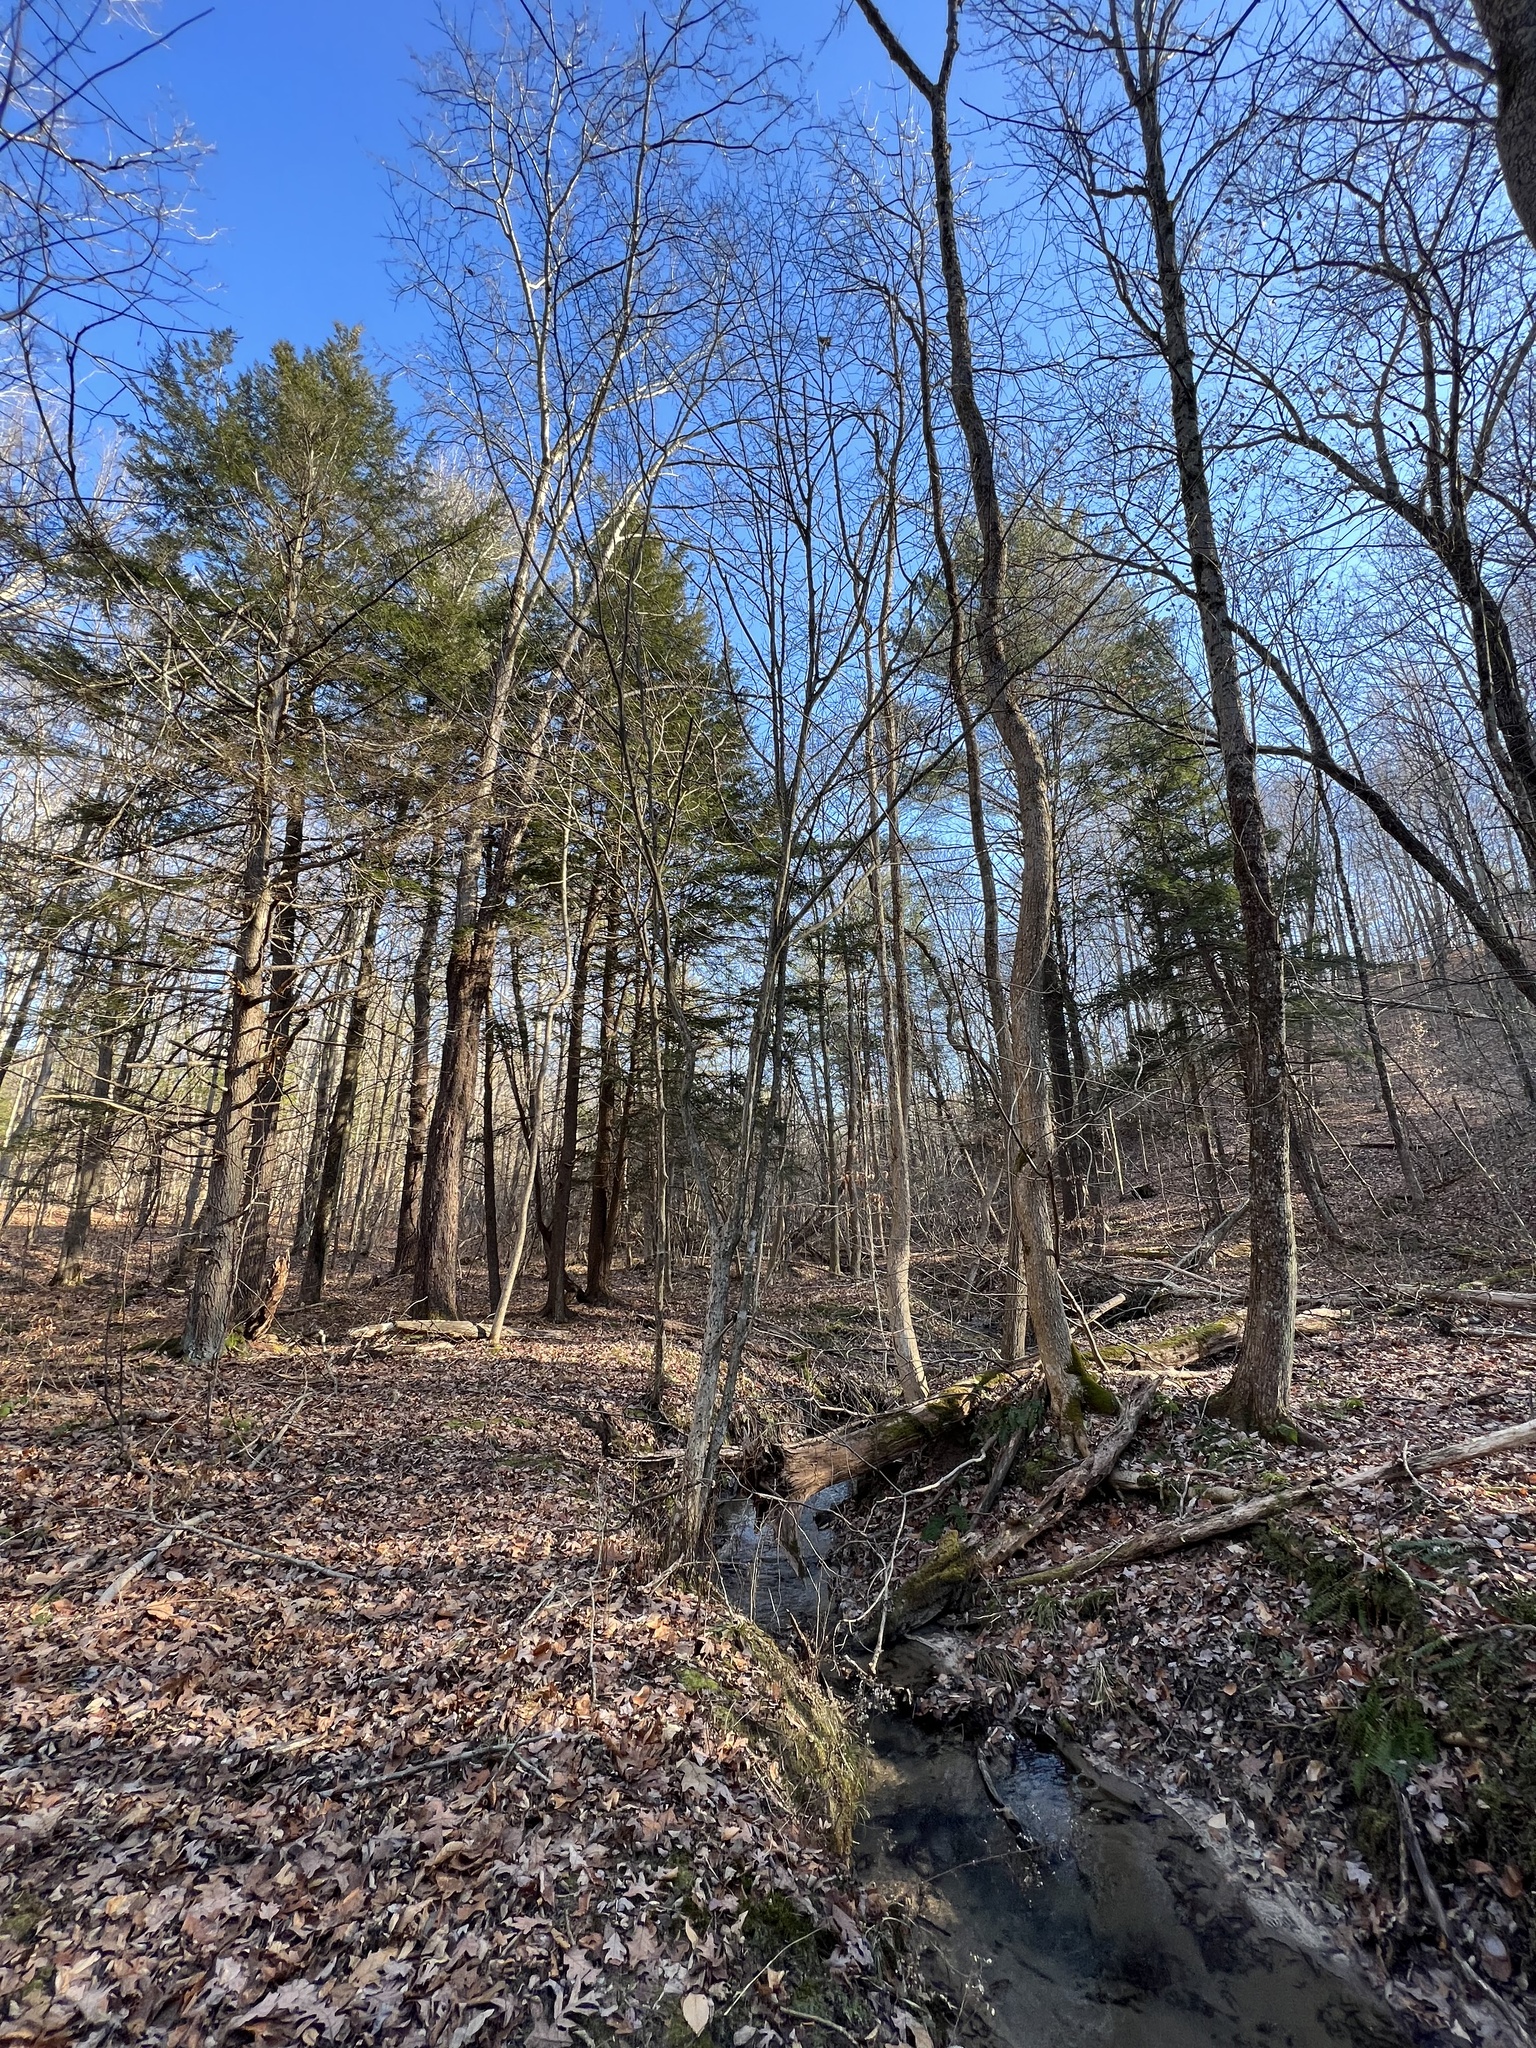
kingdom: Plantae
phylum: Tracheophyta
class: Pinopsida
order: Pinales
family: Pinaceae
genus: Tsuga
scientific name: Tsuga canadensis
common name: Eastern hemlock
